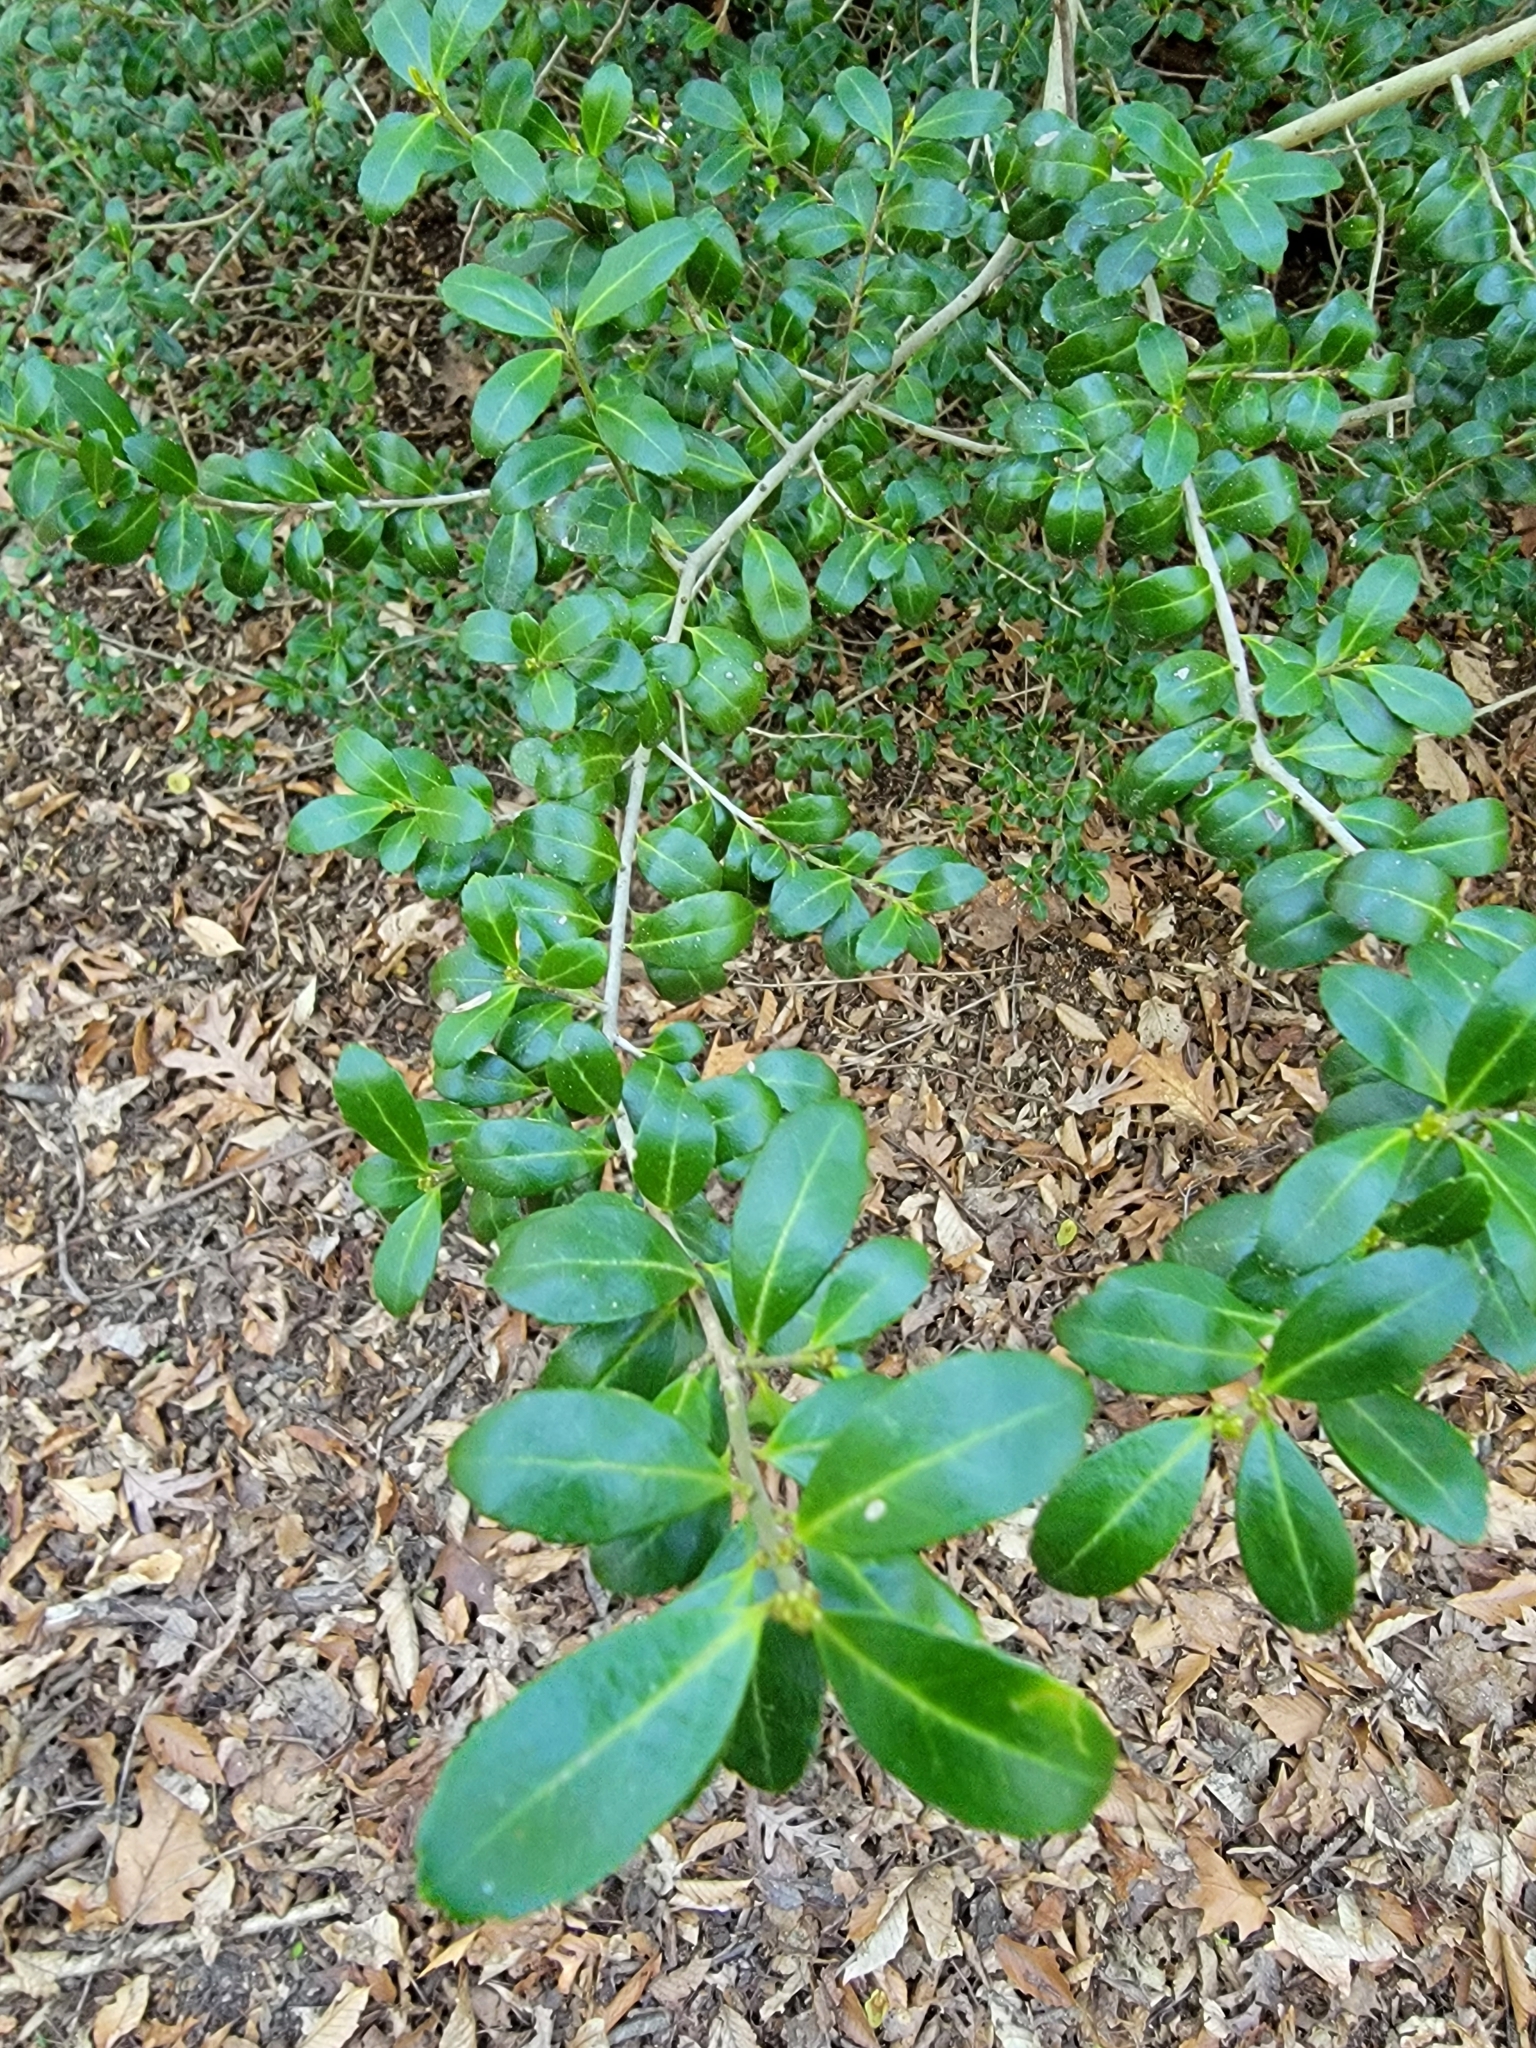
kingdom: Plantae
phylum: Tracheophyta
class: Magnoliopsida
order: Aquifoliales
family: Aquifoliaceae
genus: Ilex
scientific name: Ilex crenata
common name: Japanese holly
